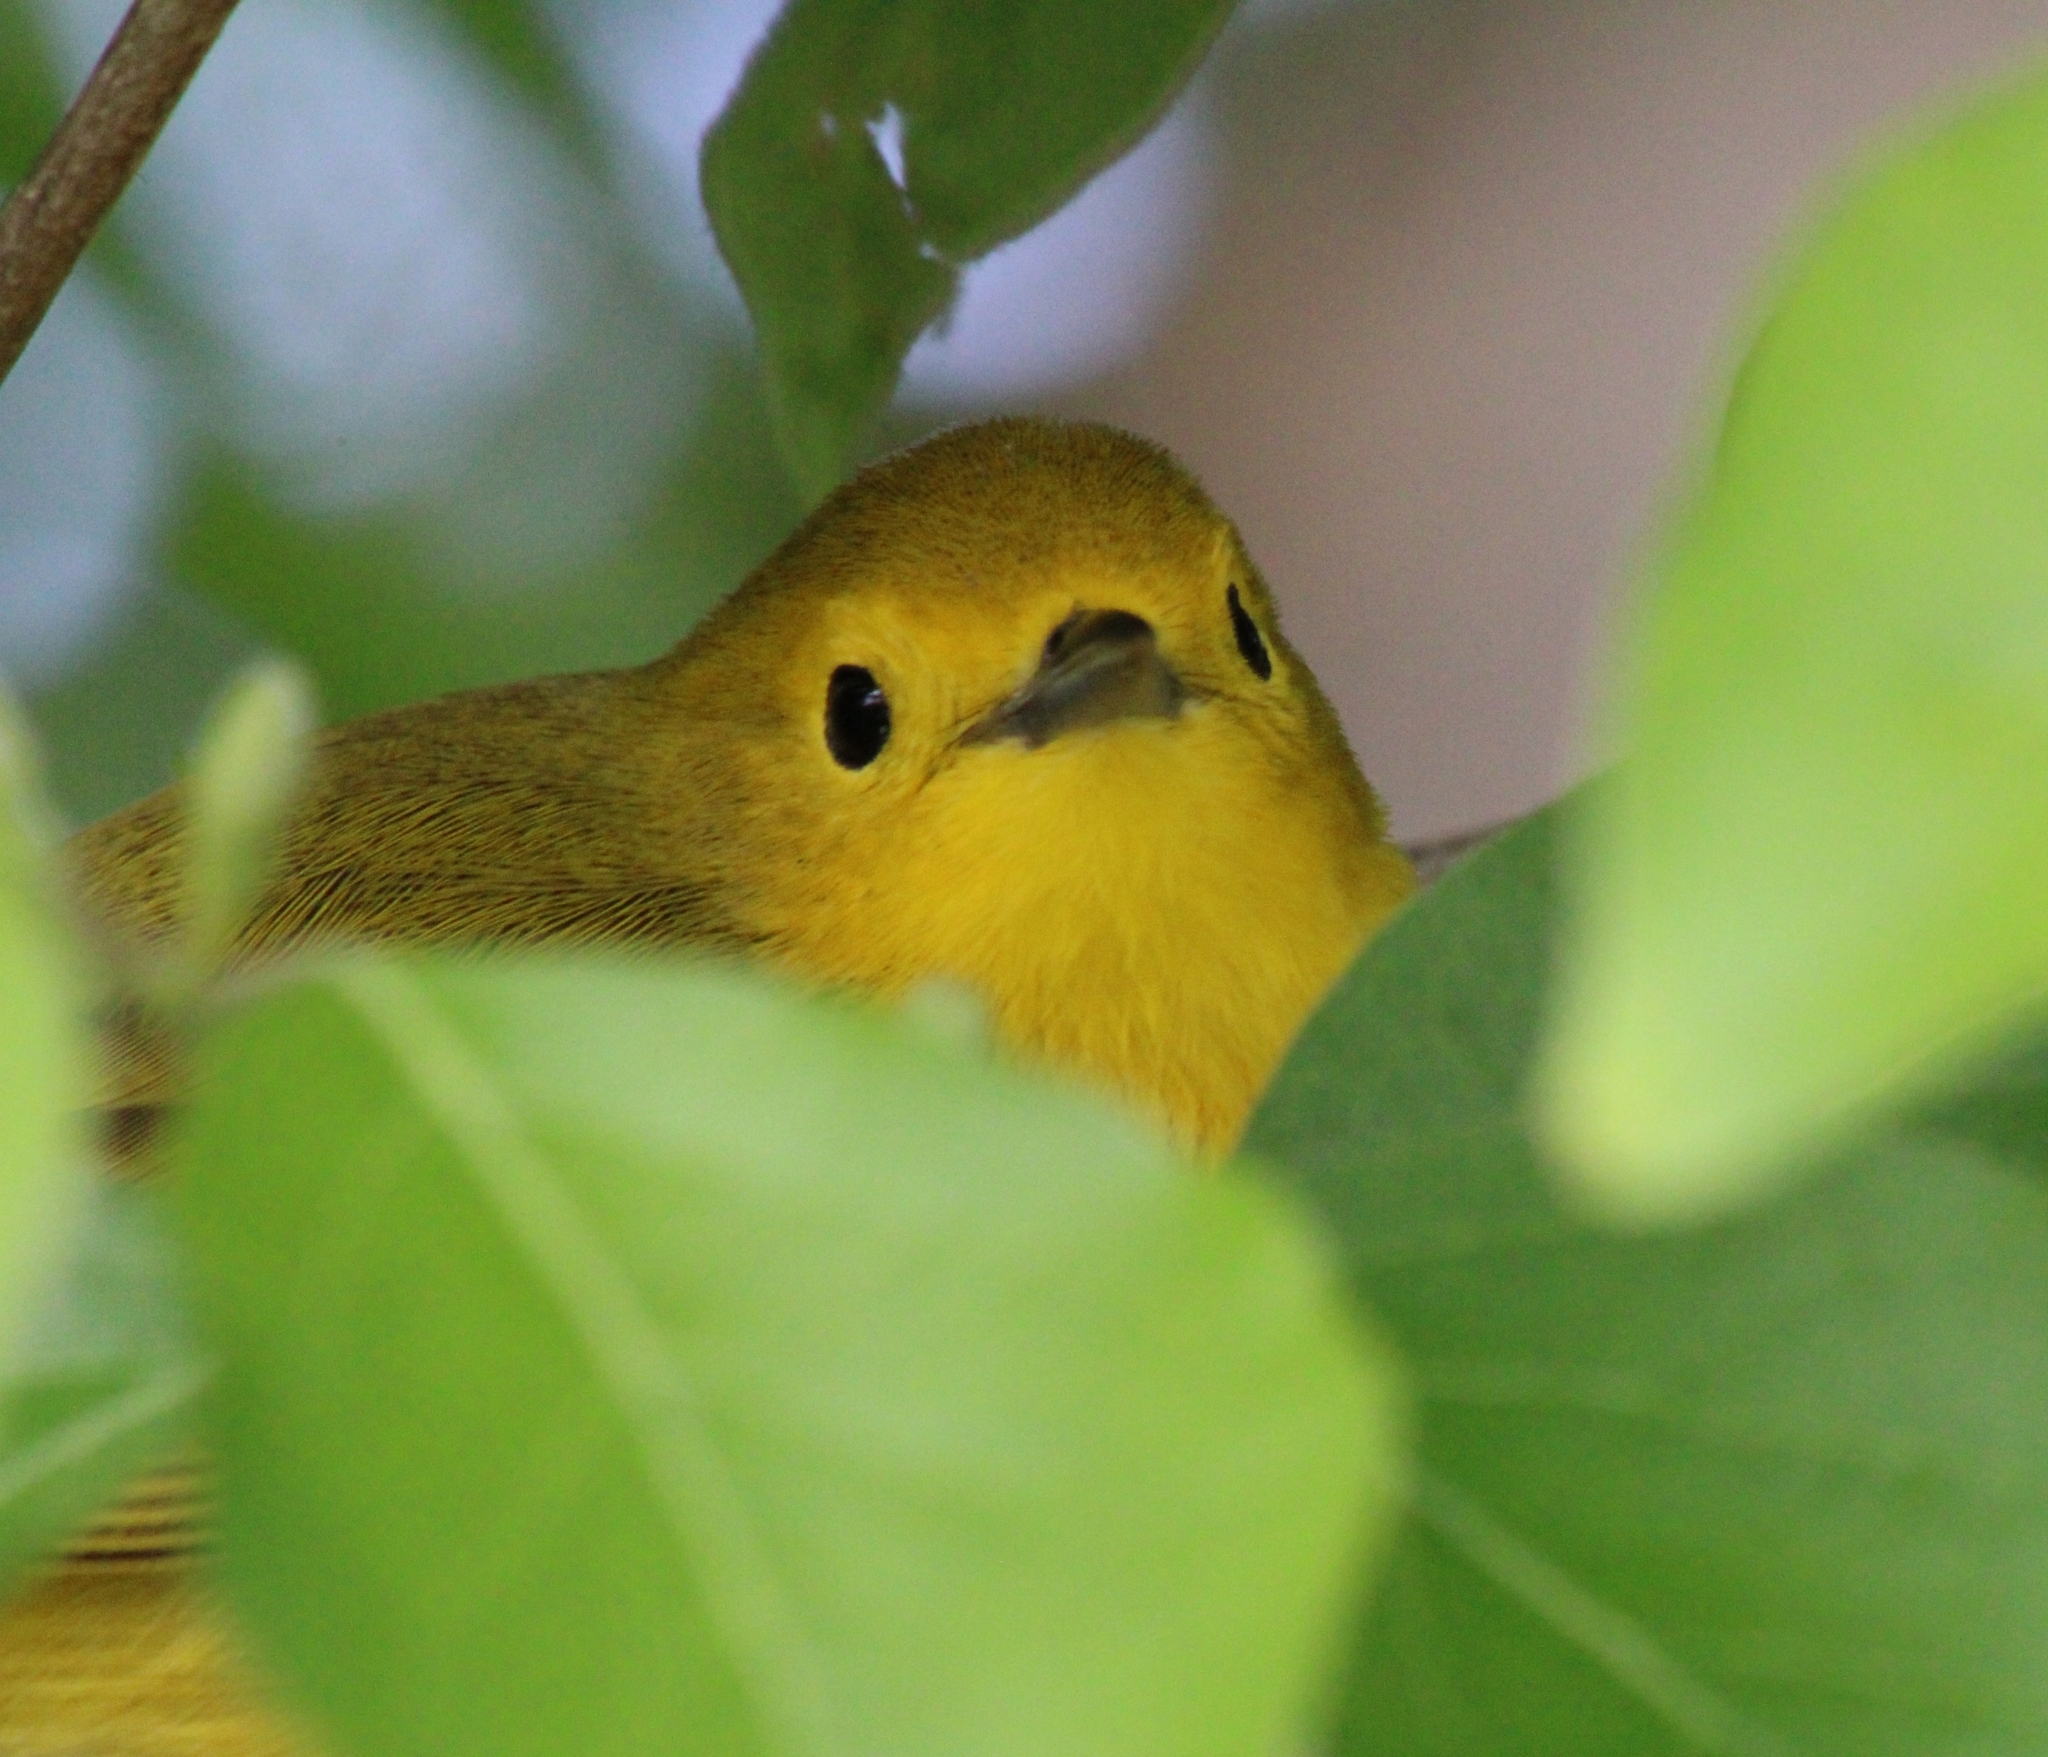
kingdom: Animalia
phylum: Chordata
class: Aves
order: Passeriformes
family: Parulidae
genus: Setophaga
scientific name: Setophaga petechia
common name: Yellow warbler
